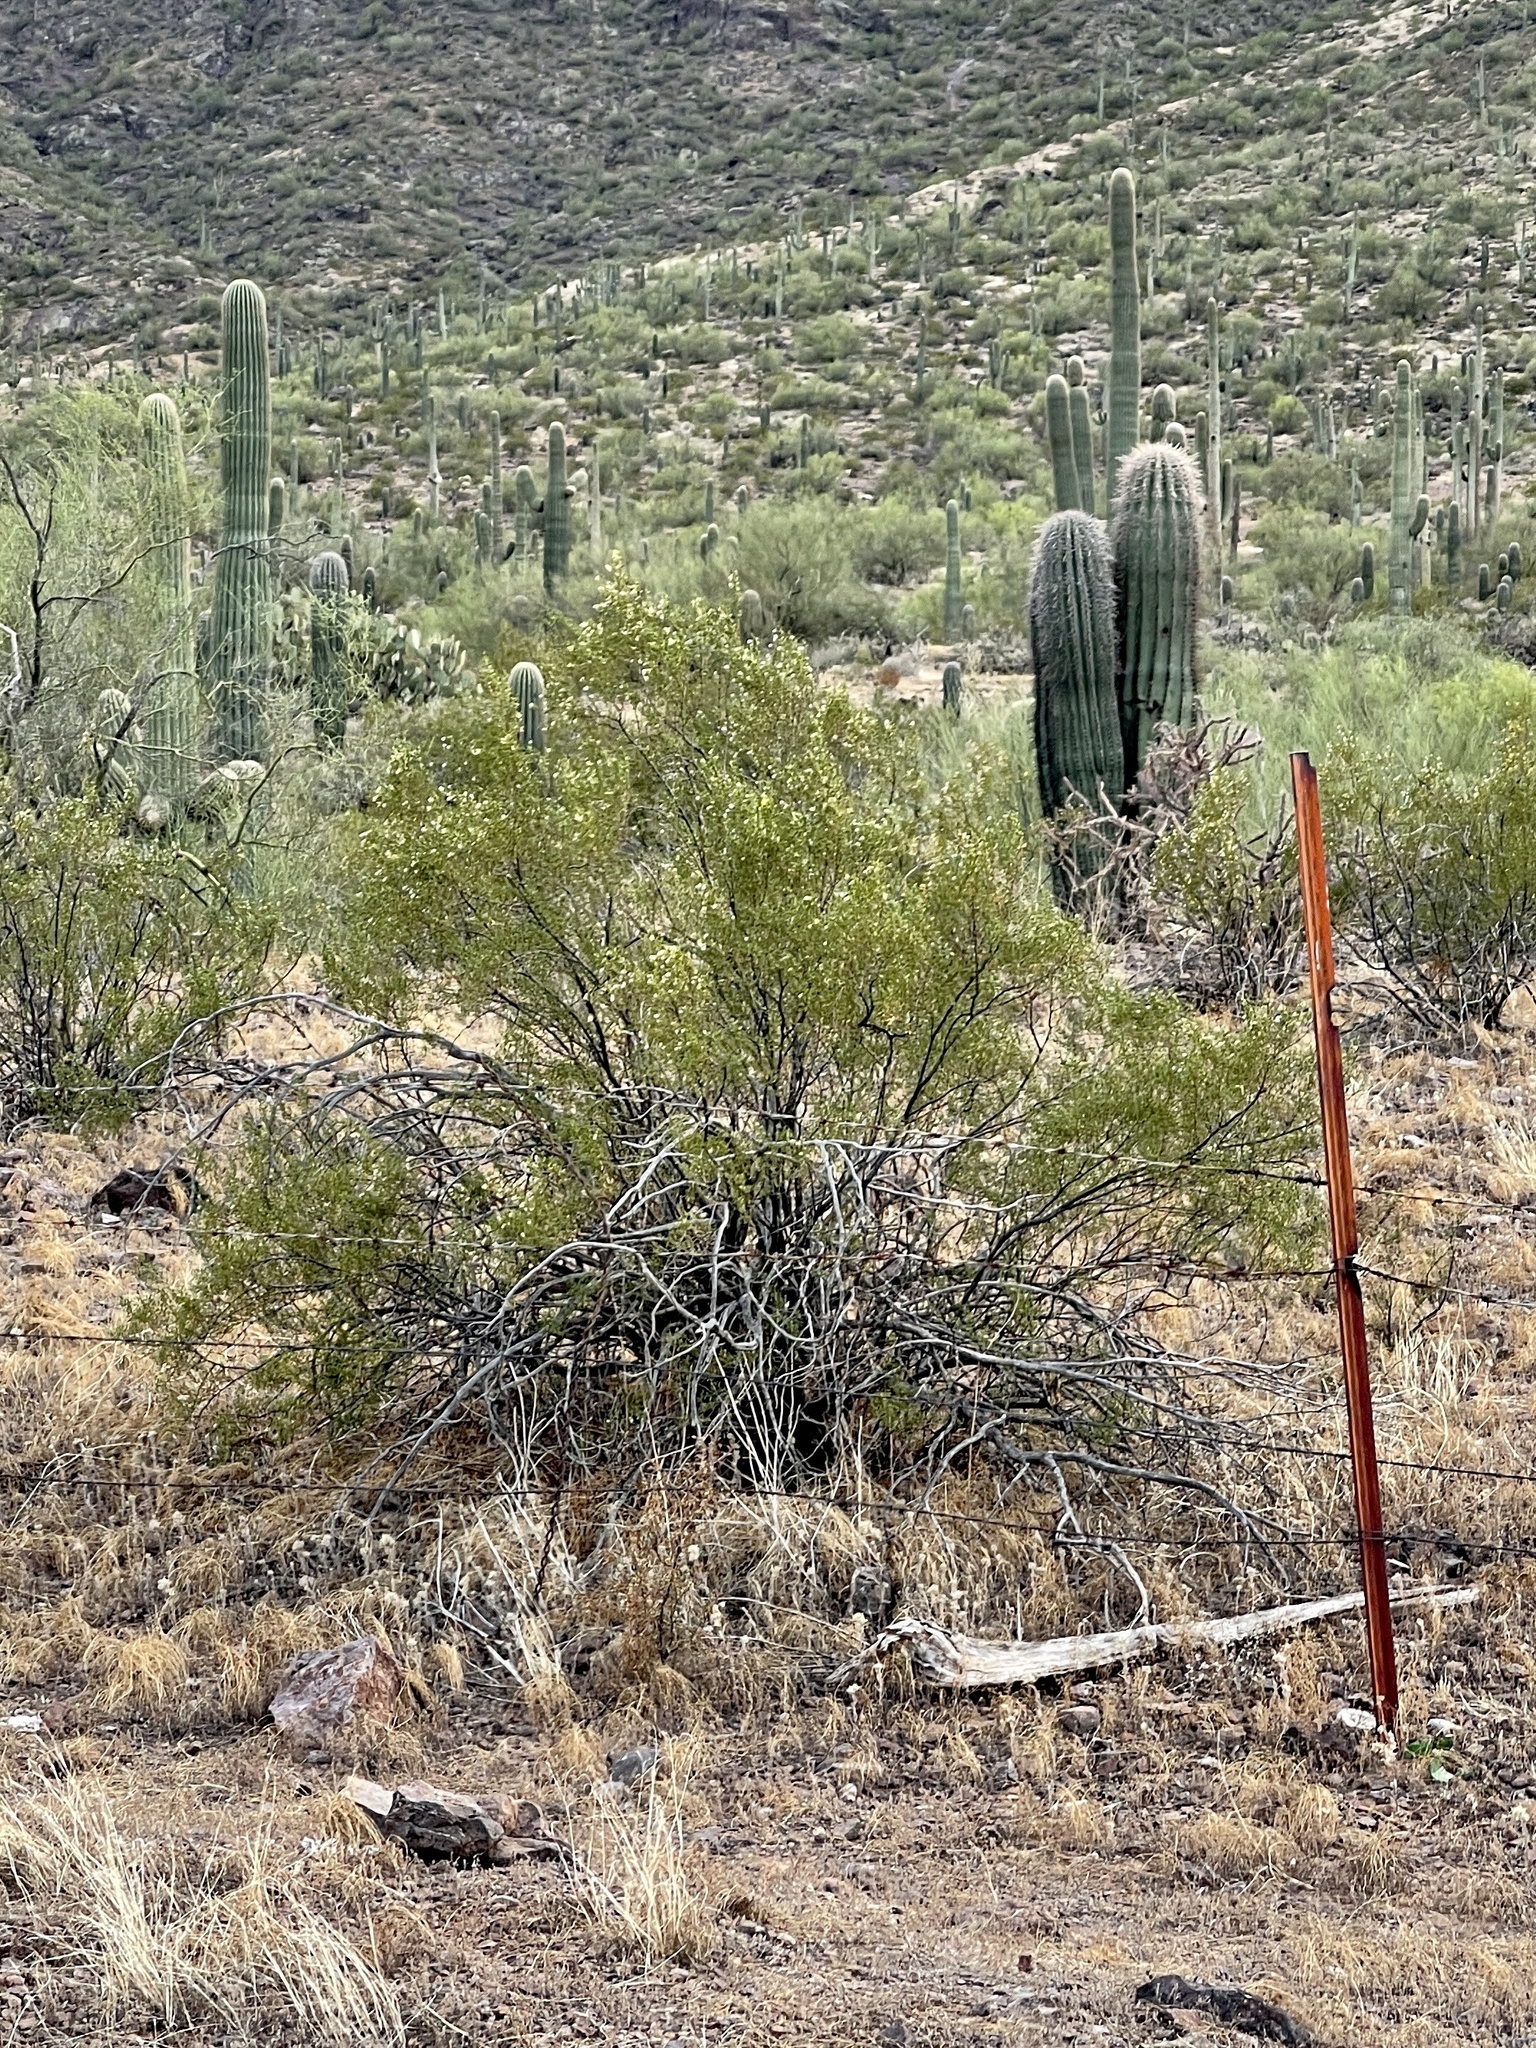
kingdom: Plantae
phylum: Tracheophyta
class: Magnoliopsida
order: Zygophyllales
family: Zygophyllaceae
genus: Larrea
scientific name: Larrea tridentata
